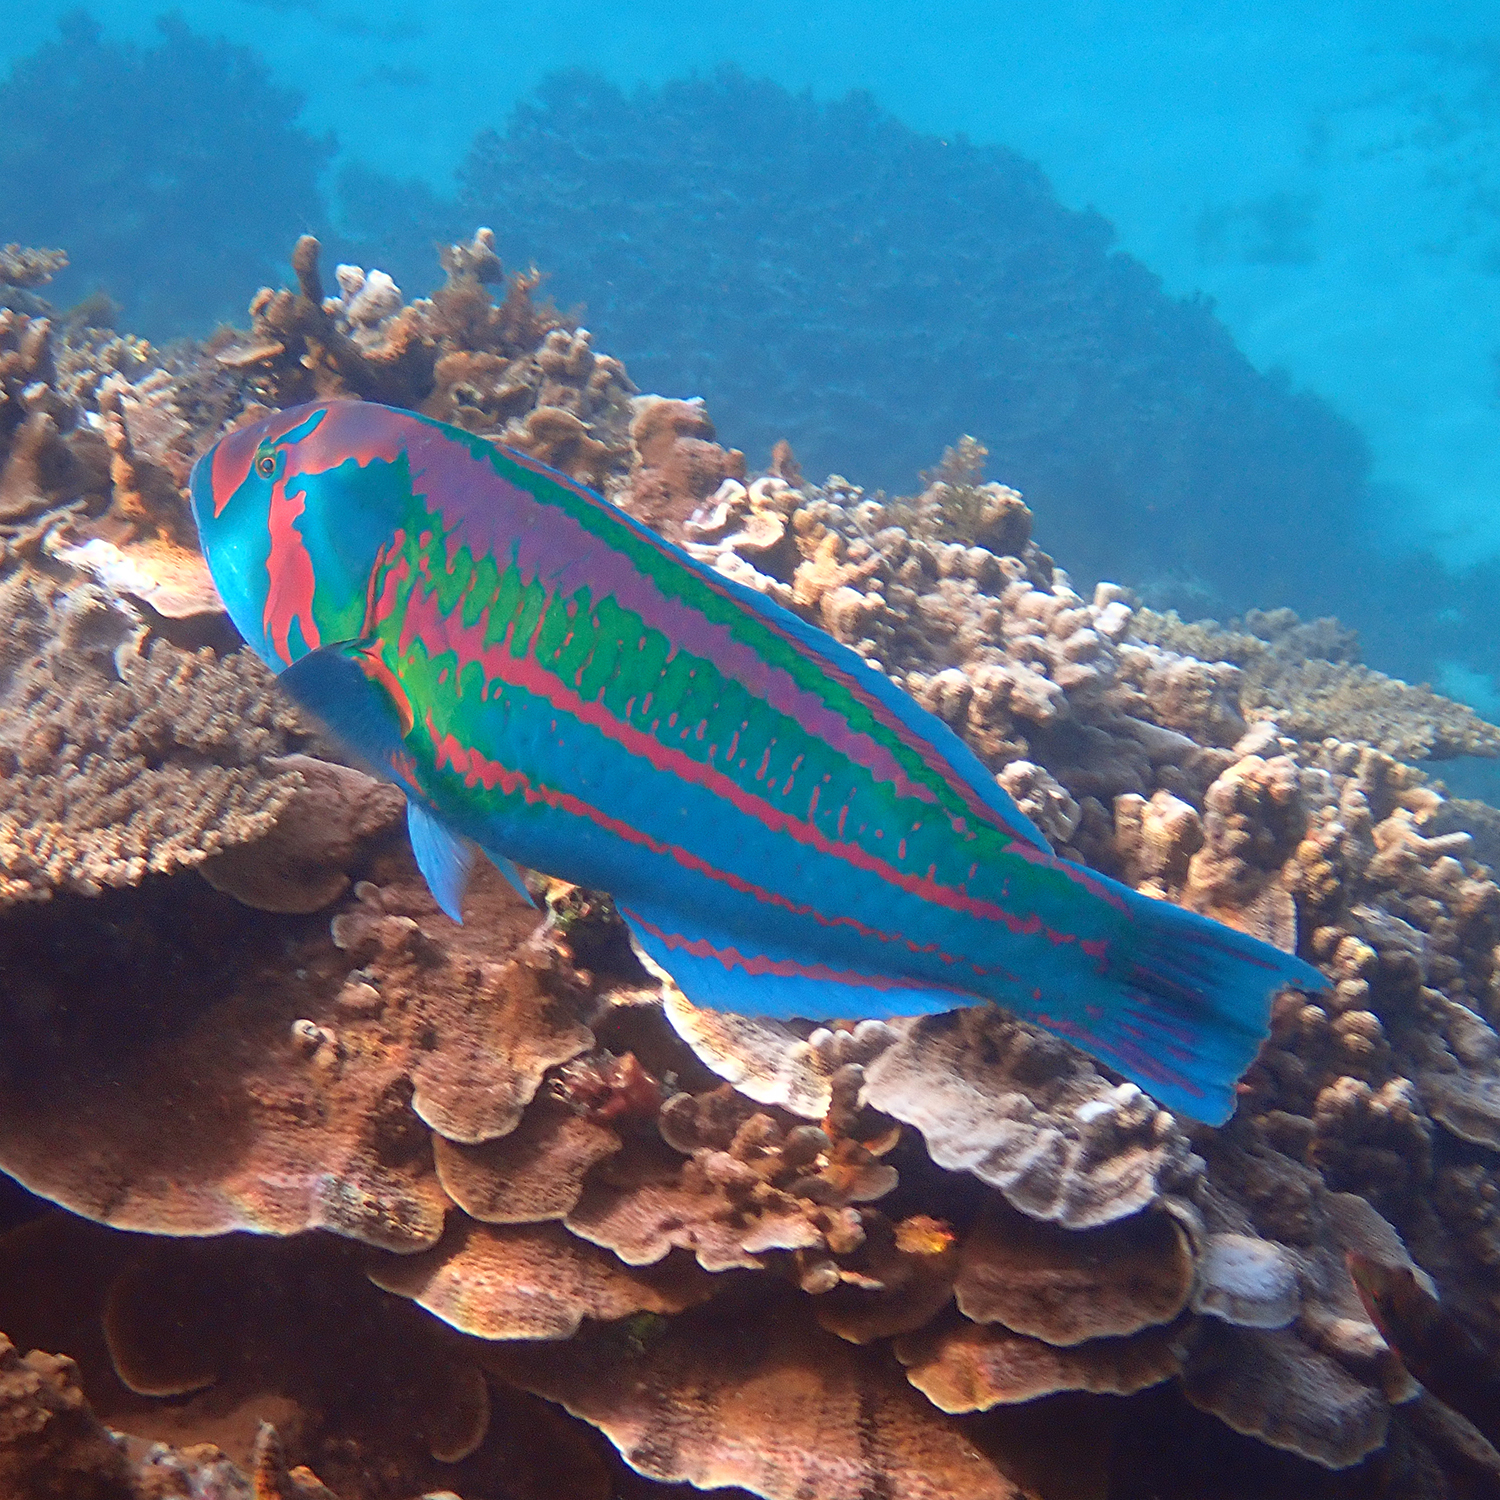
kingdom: Animalia
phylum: Chordata
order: Perciformes
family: Labridae
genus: Thalassoma
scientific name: Thalassoma purpureum
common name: Parrotfish
